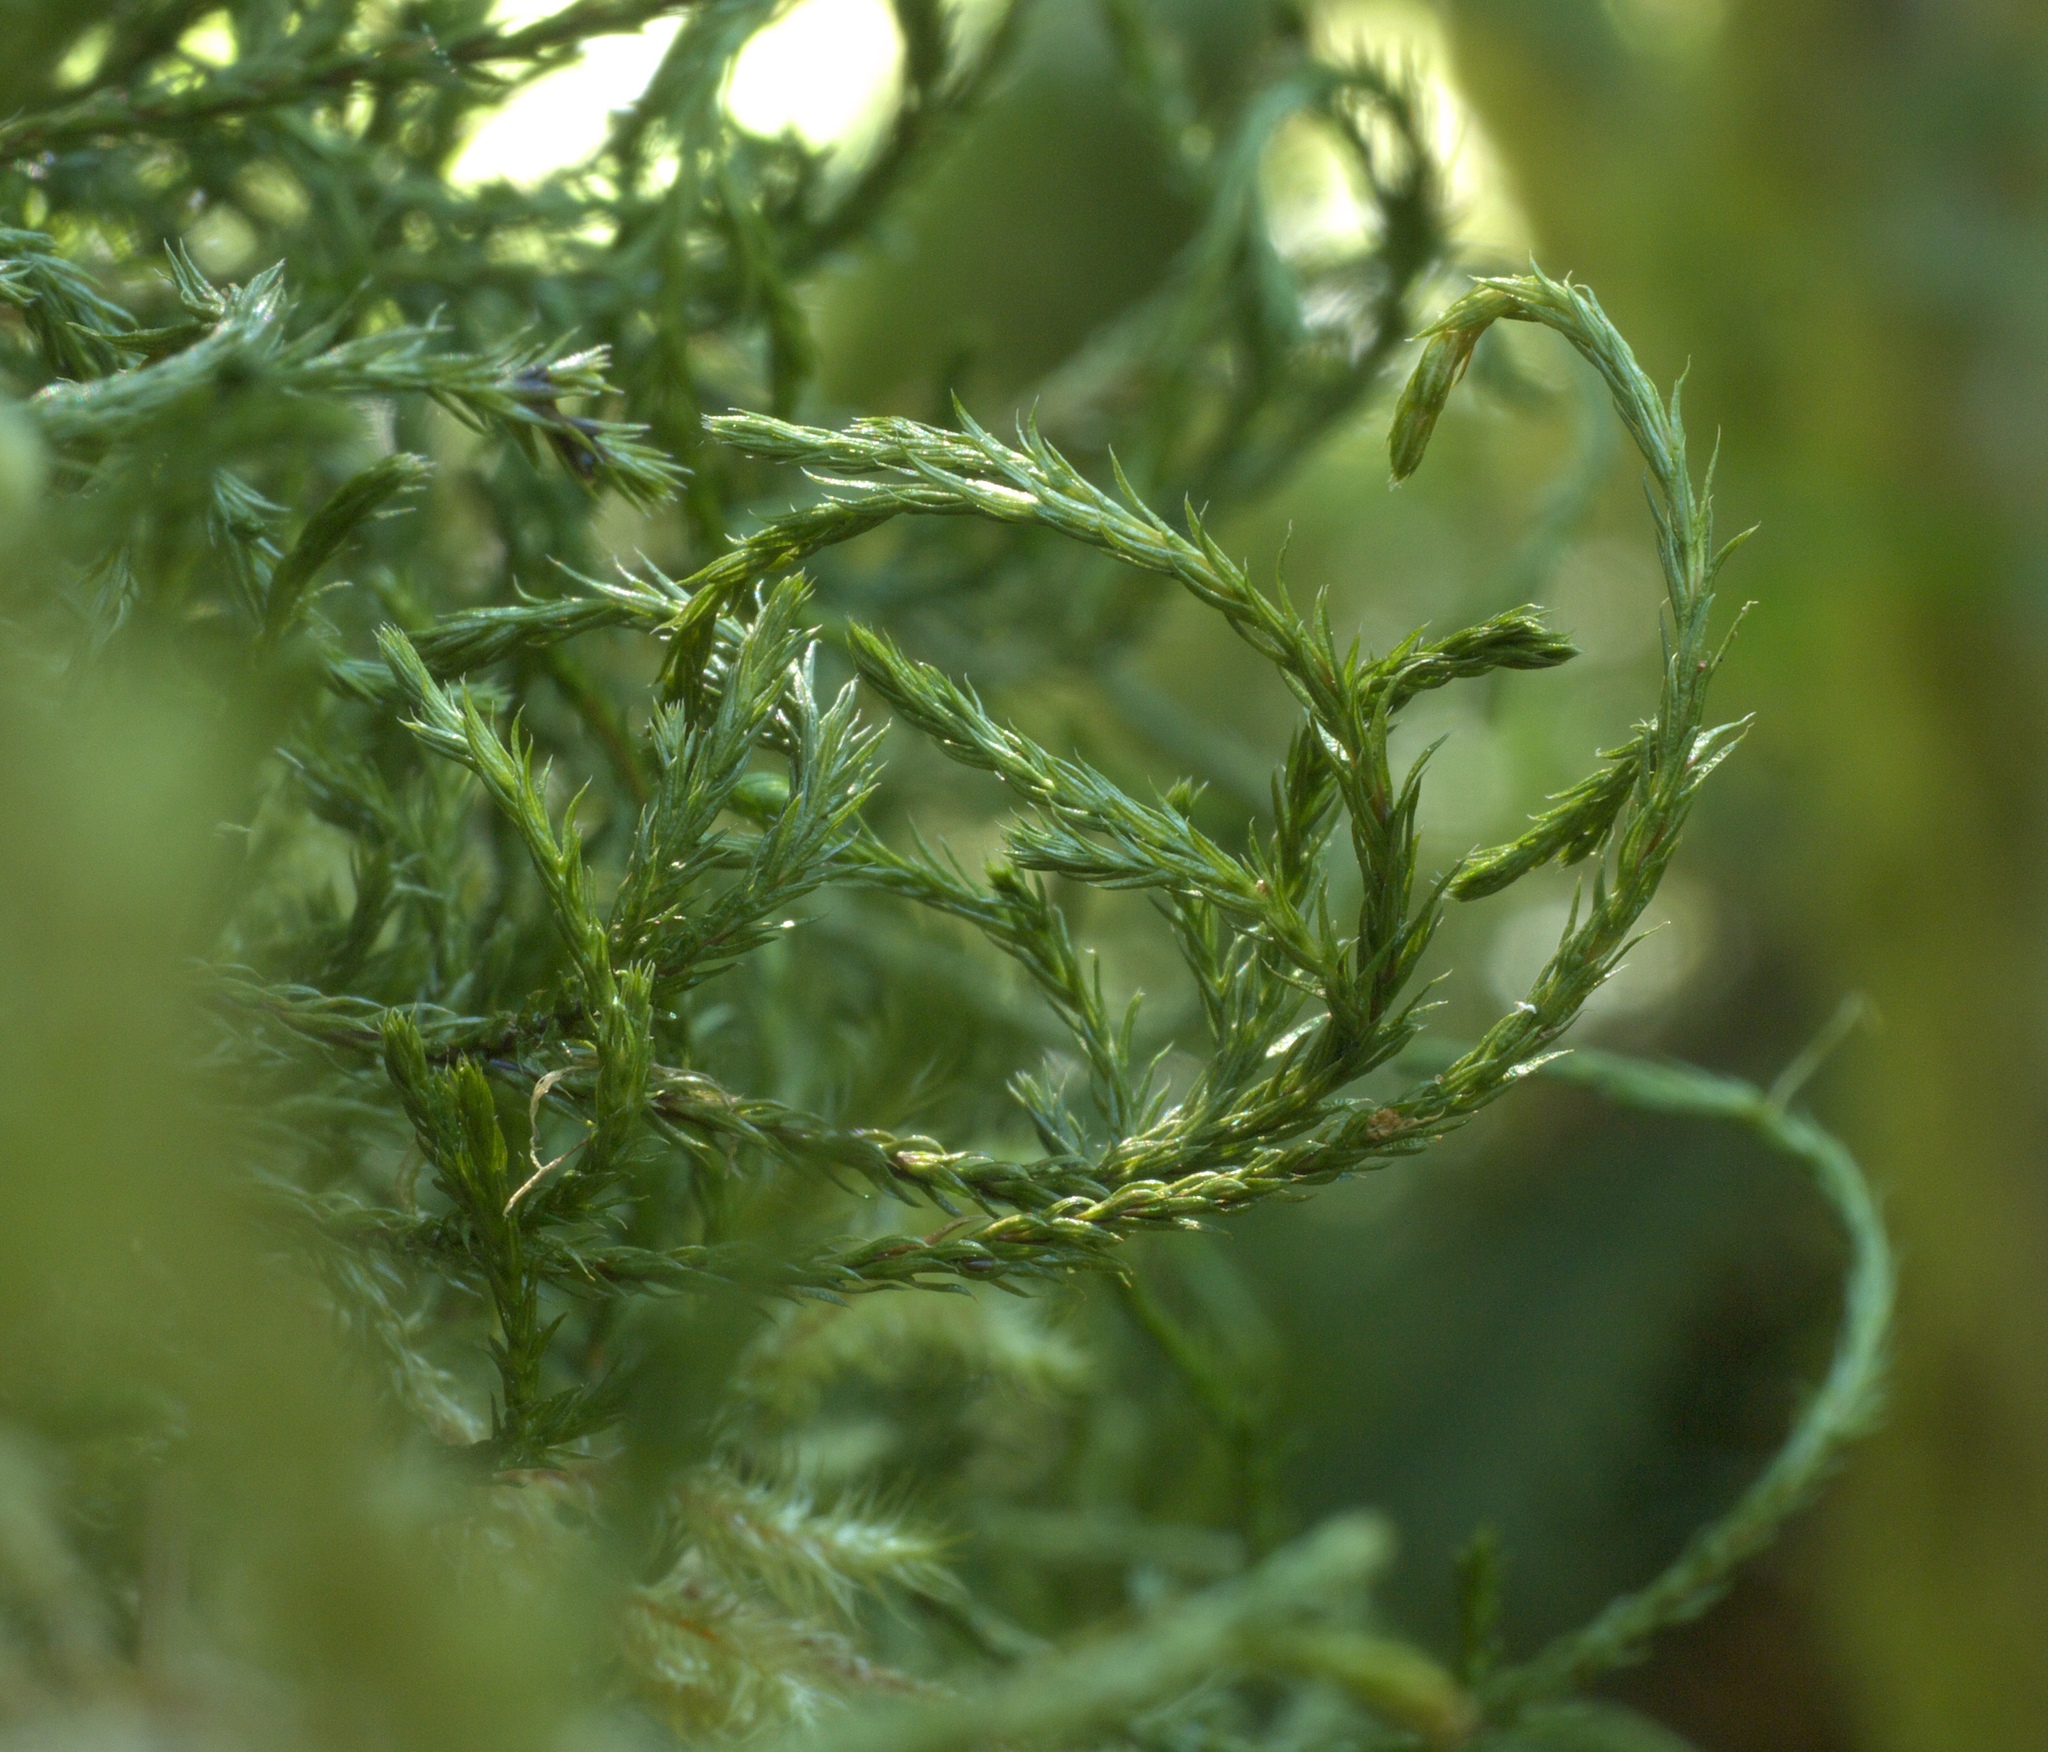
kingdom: Plantae
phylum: Tracheophyta
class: Lycopodiopsida
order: Selaginellales
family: Selaginellaceae
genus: Selaginella
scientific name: Selaginella oregana
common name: Oregon selaginella
